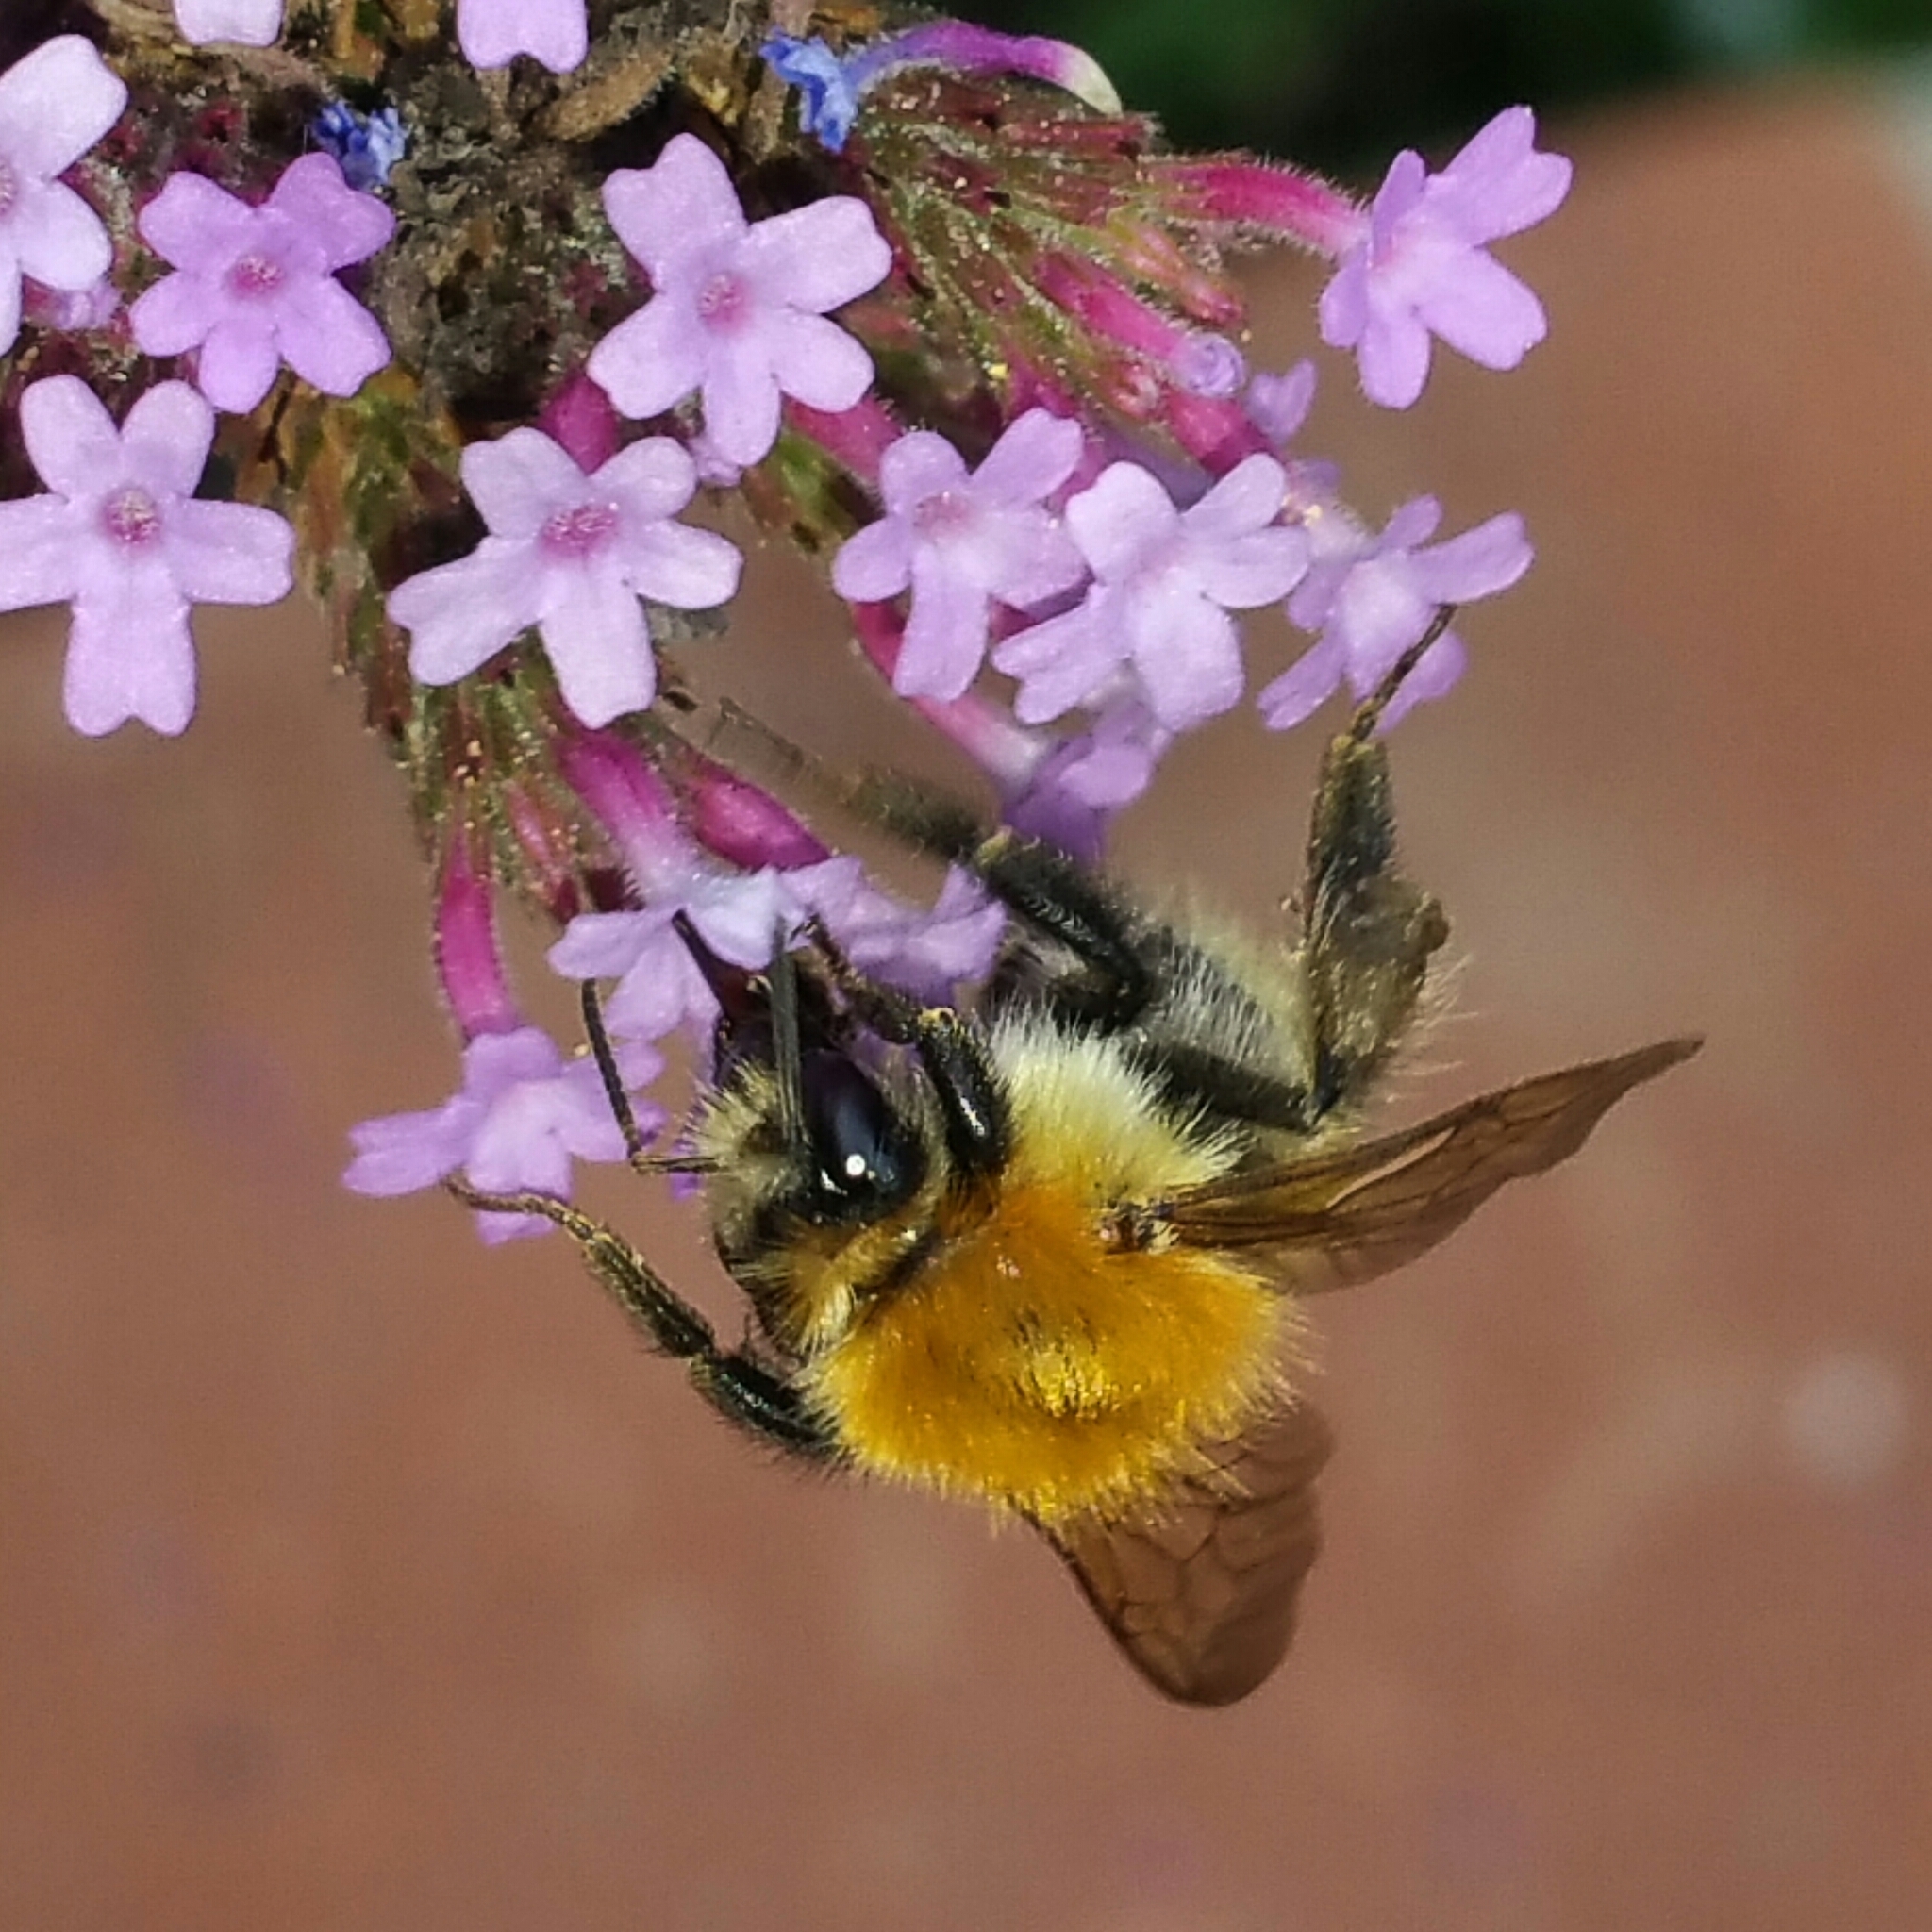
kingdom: Animalia
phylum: Arthropoda
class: Insecta
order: Hymenoptera
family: Apidae
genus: Bombus
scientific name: Bombus pascuorum
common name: Common carder bee
